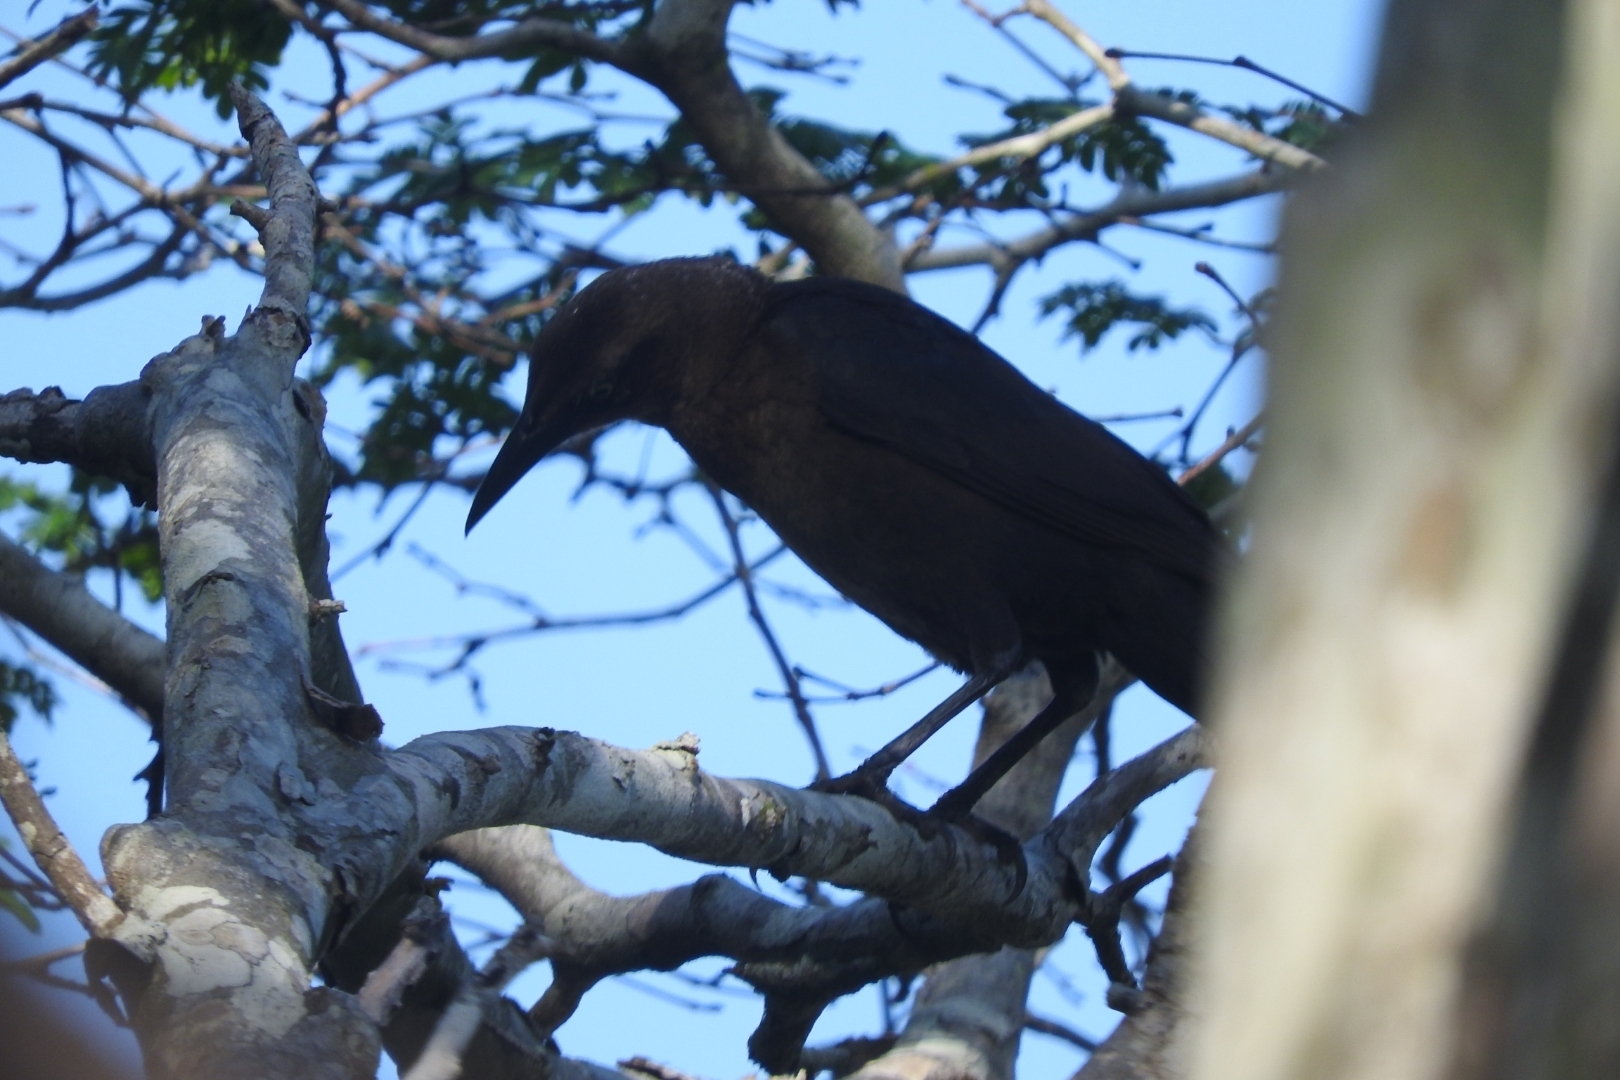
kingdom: Animalia
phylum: Chordata
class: Aves
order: Passeriformes
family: Icteridae
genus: Quiscalus
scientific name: Quiscalus mexicanus
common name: Great-tailed grackle
